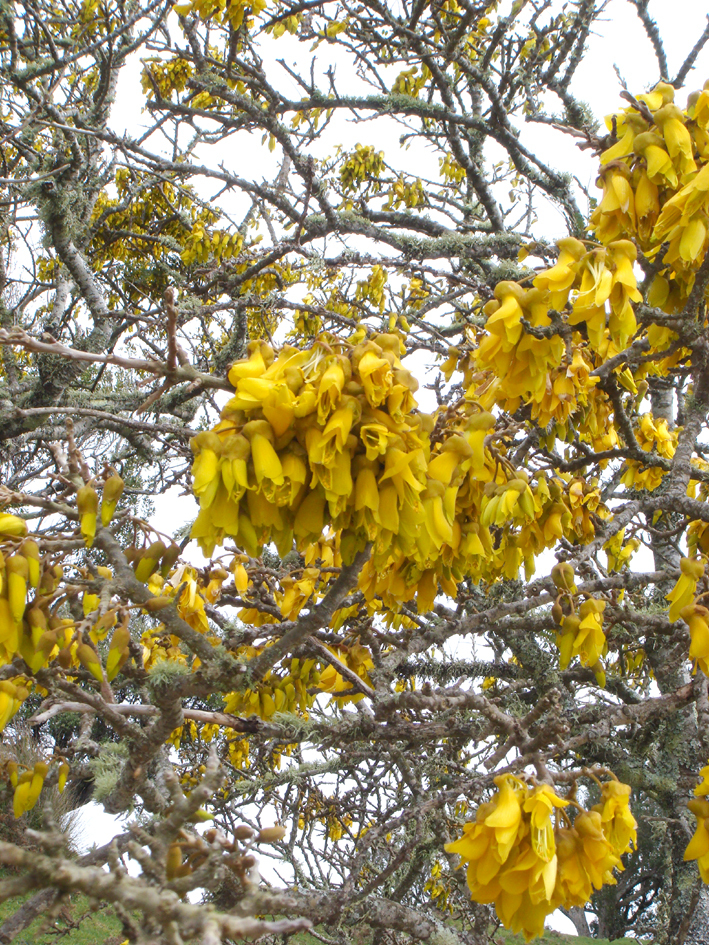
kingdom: Plantae
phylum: Tracheophyta
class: Magnoliopsida
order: Fabales
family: Fabaceae
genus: Sophora
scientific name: Sophora chathamica
